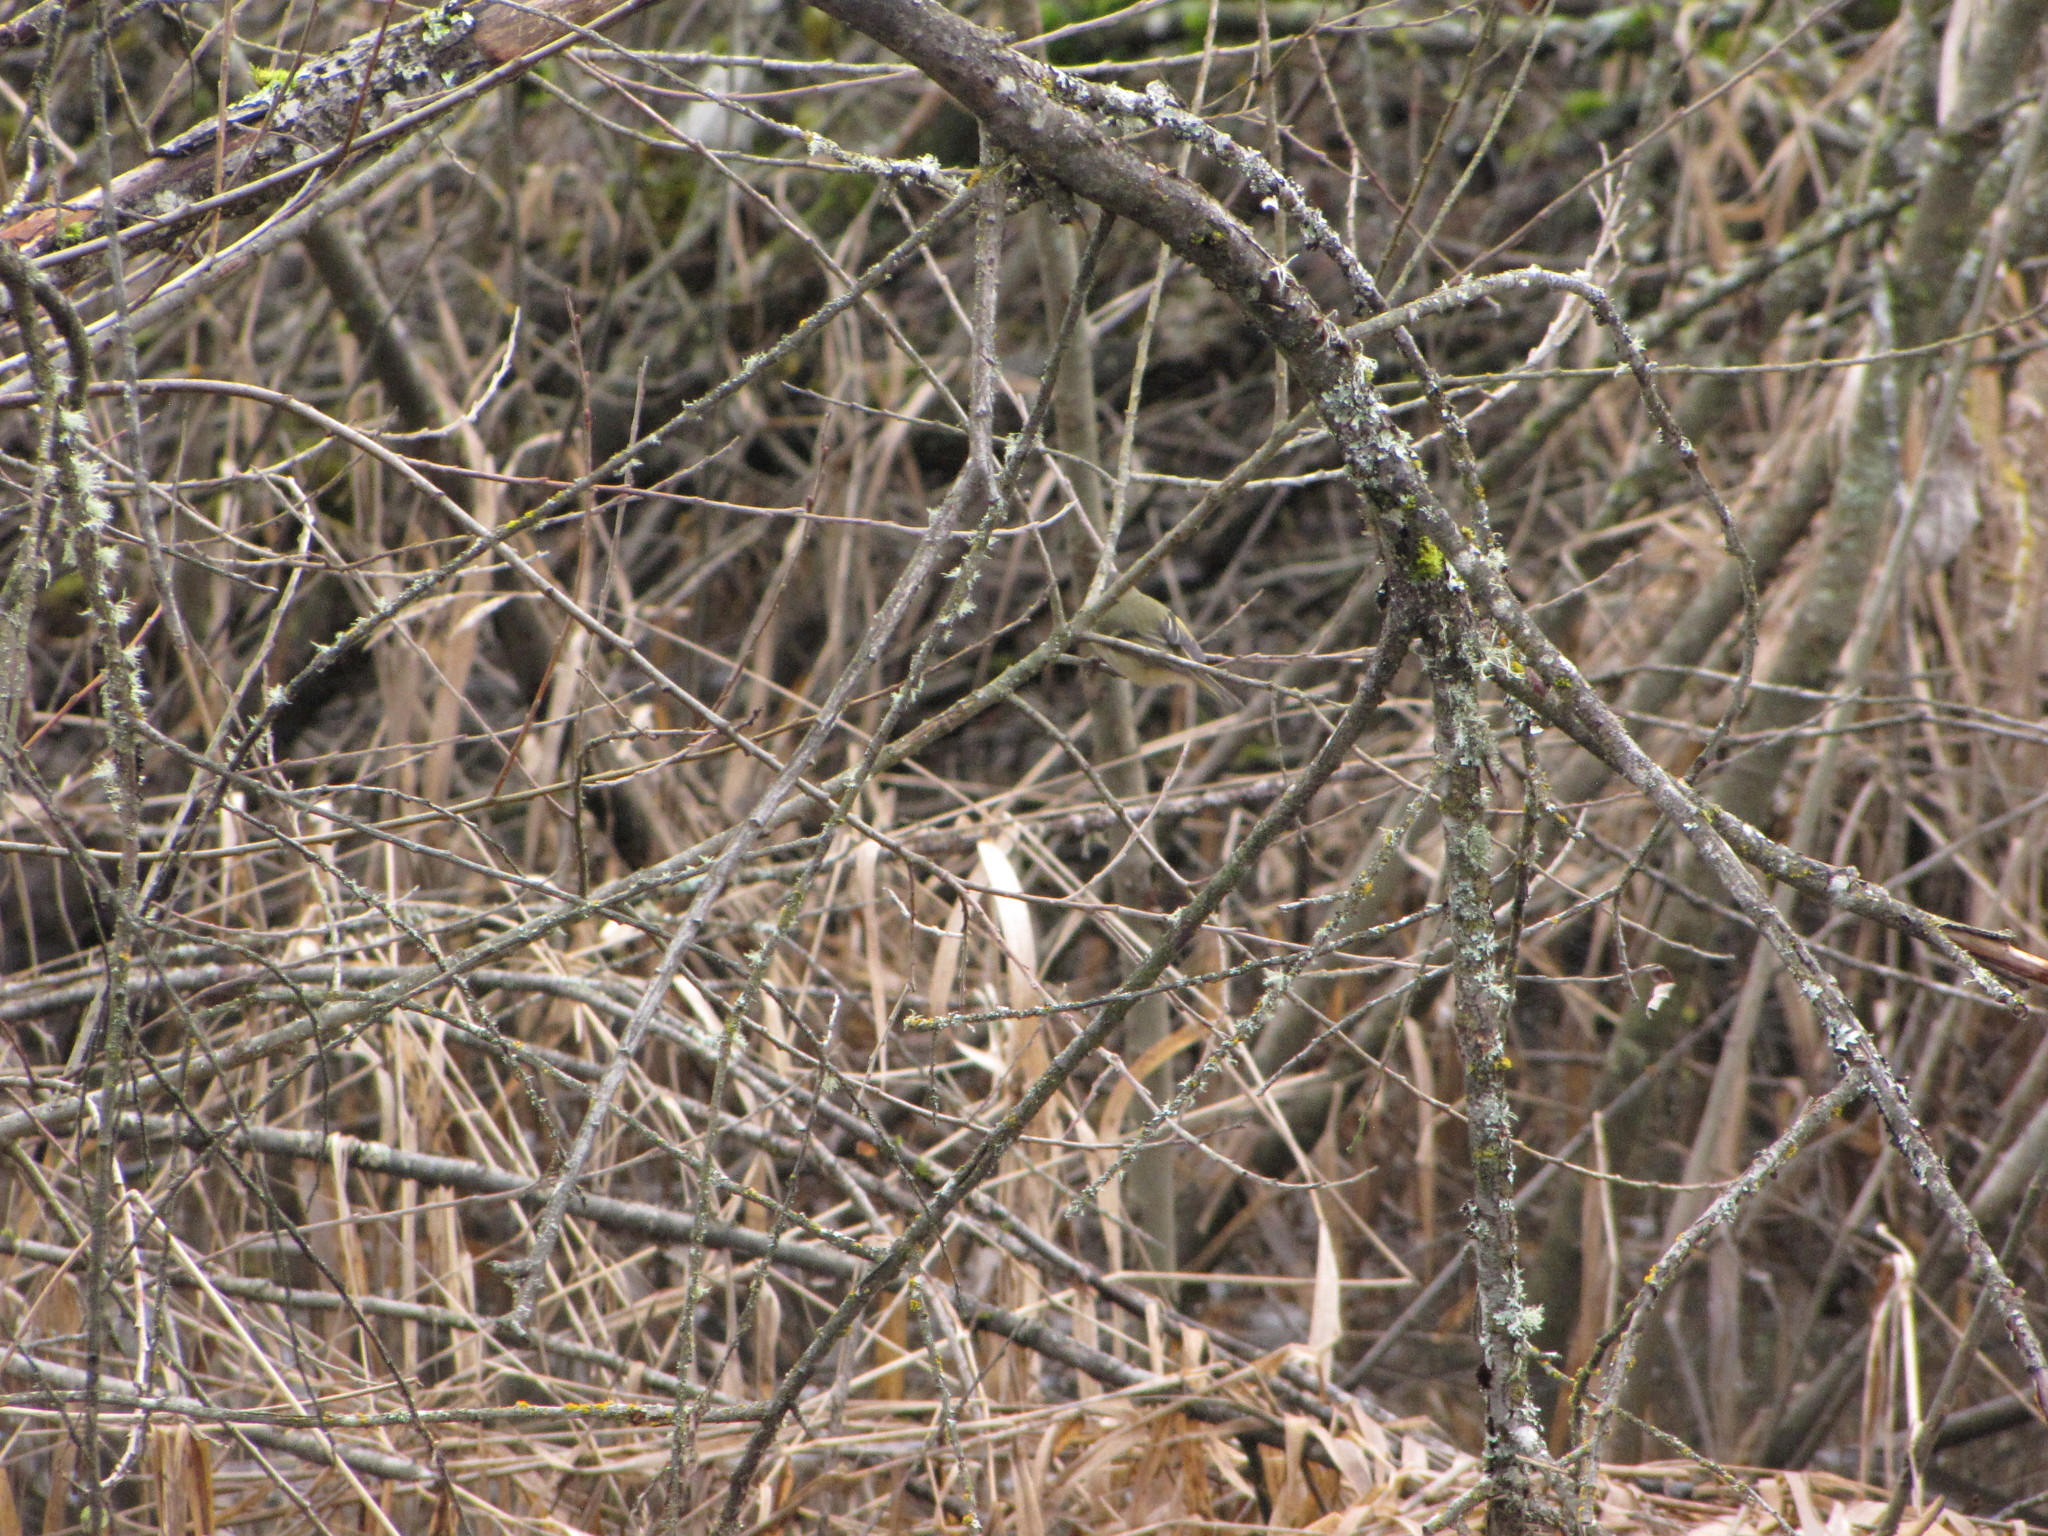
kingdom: Animalia
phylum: Chordata
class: Aves
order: Passeriformes
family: Regulidae
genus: Regulus
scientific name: Regulus calendula
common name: Ruby-crowned kinglet
